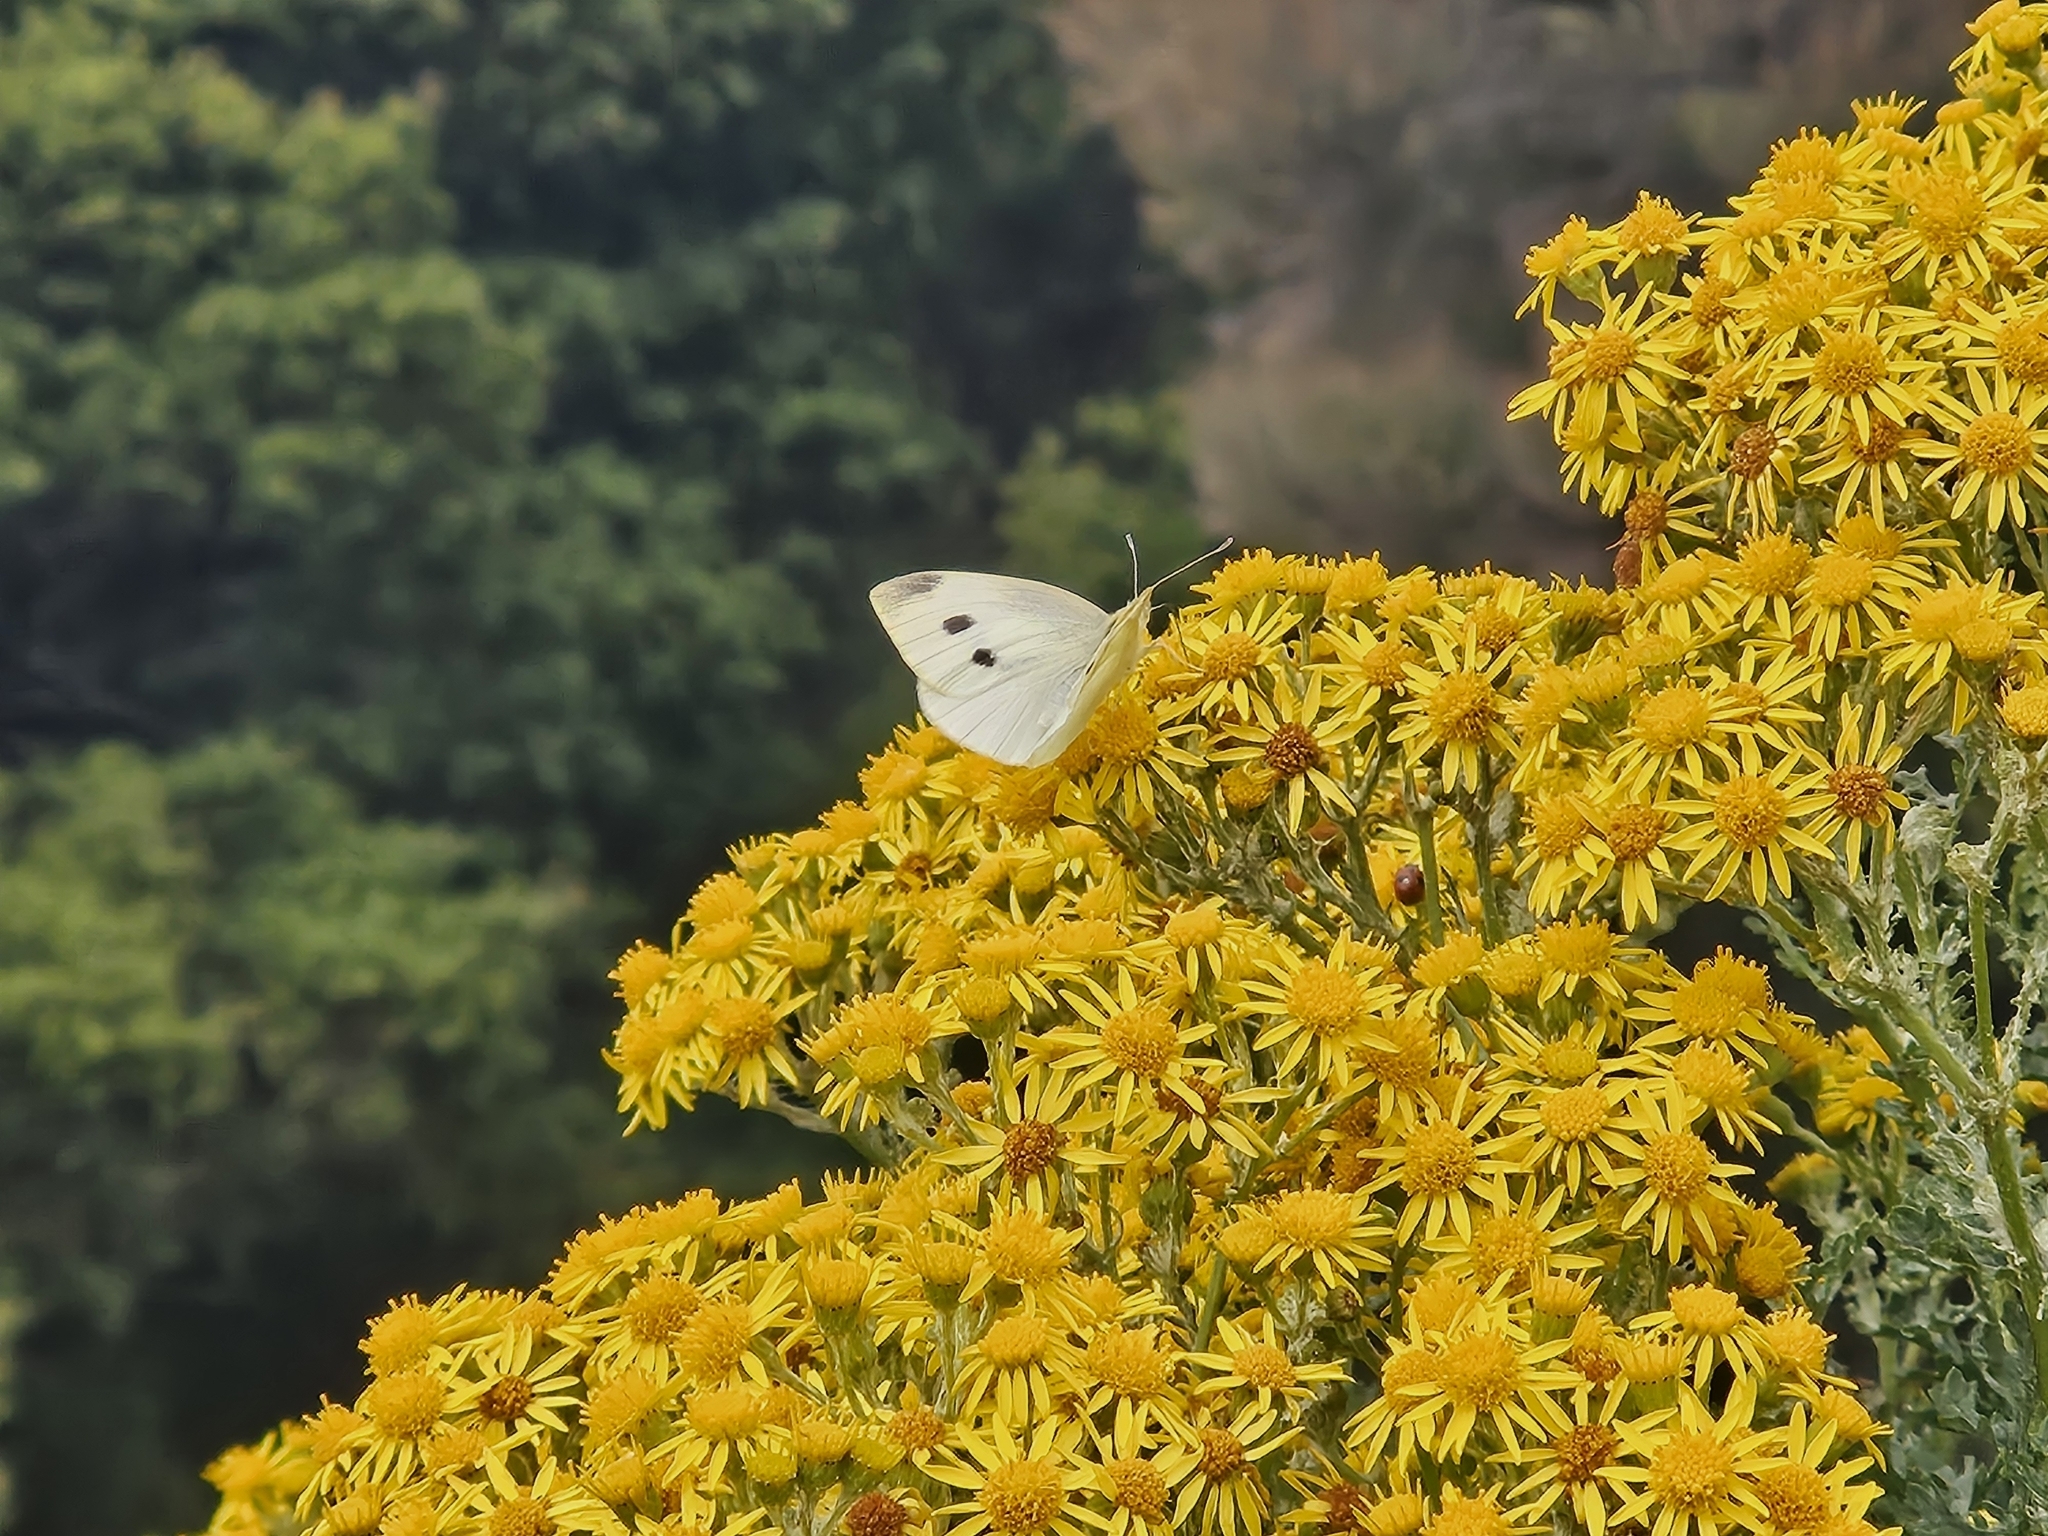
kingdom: Animalia
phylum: Arthropoda
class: Insecta
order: Lepidoptera
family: Pieridae
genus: Pieris
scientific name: Pieris rapae
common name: Small white
